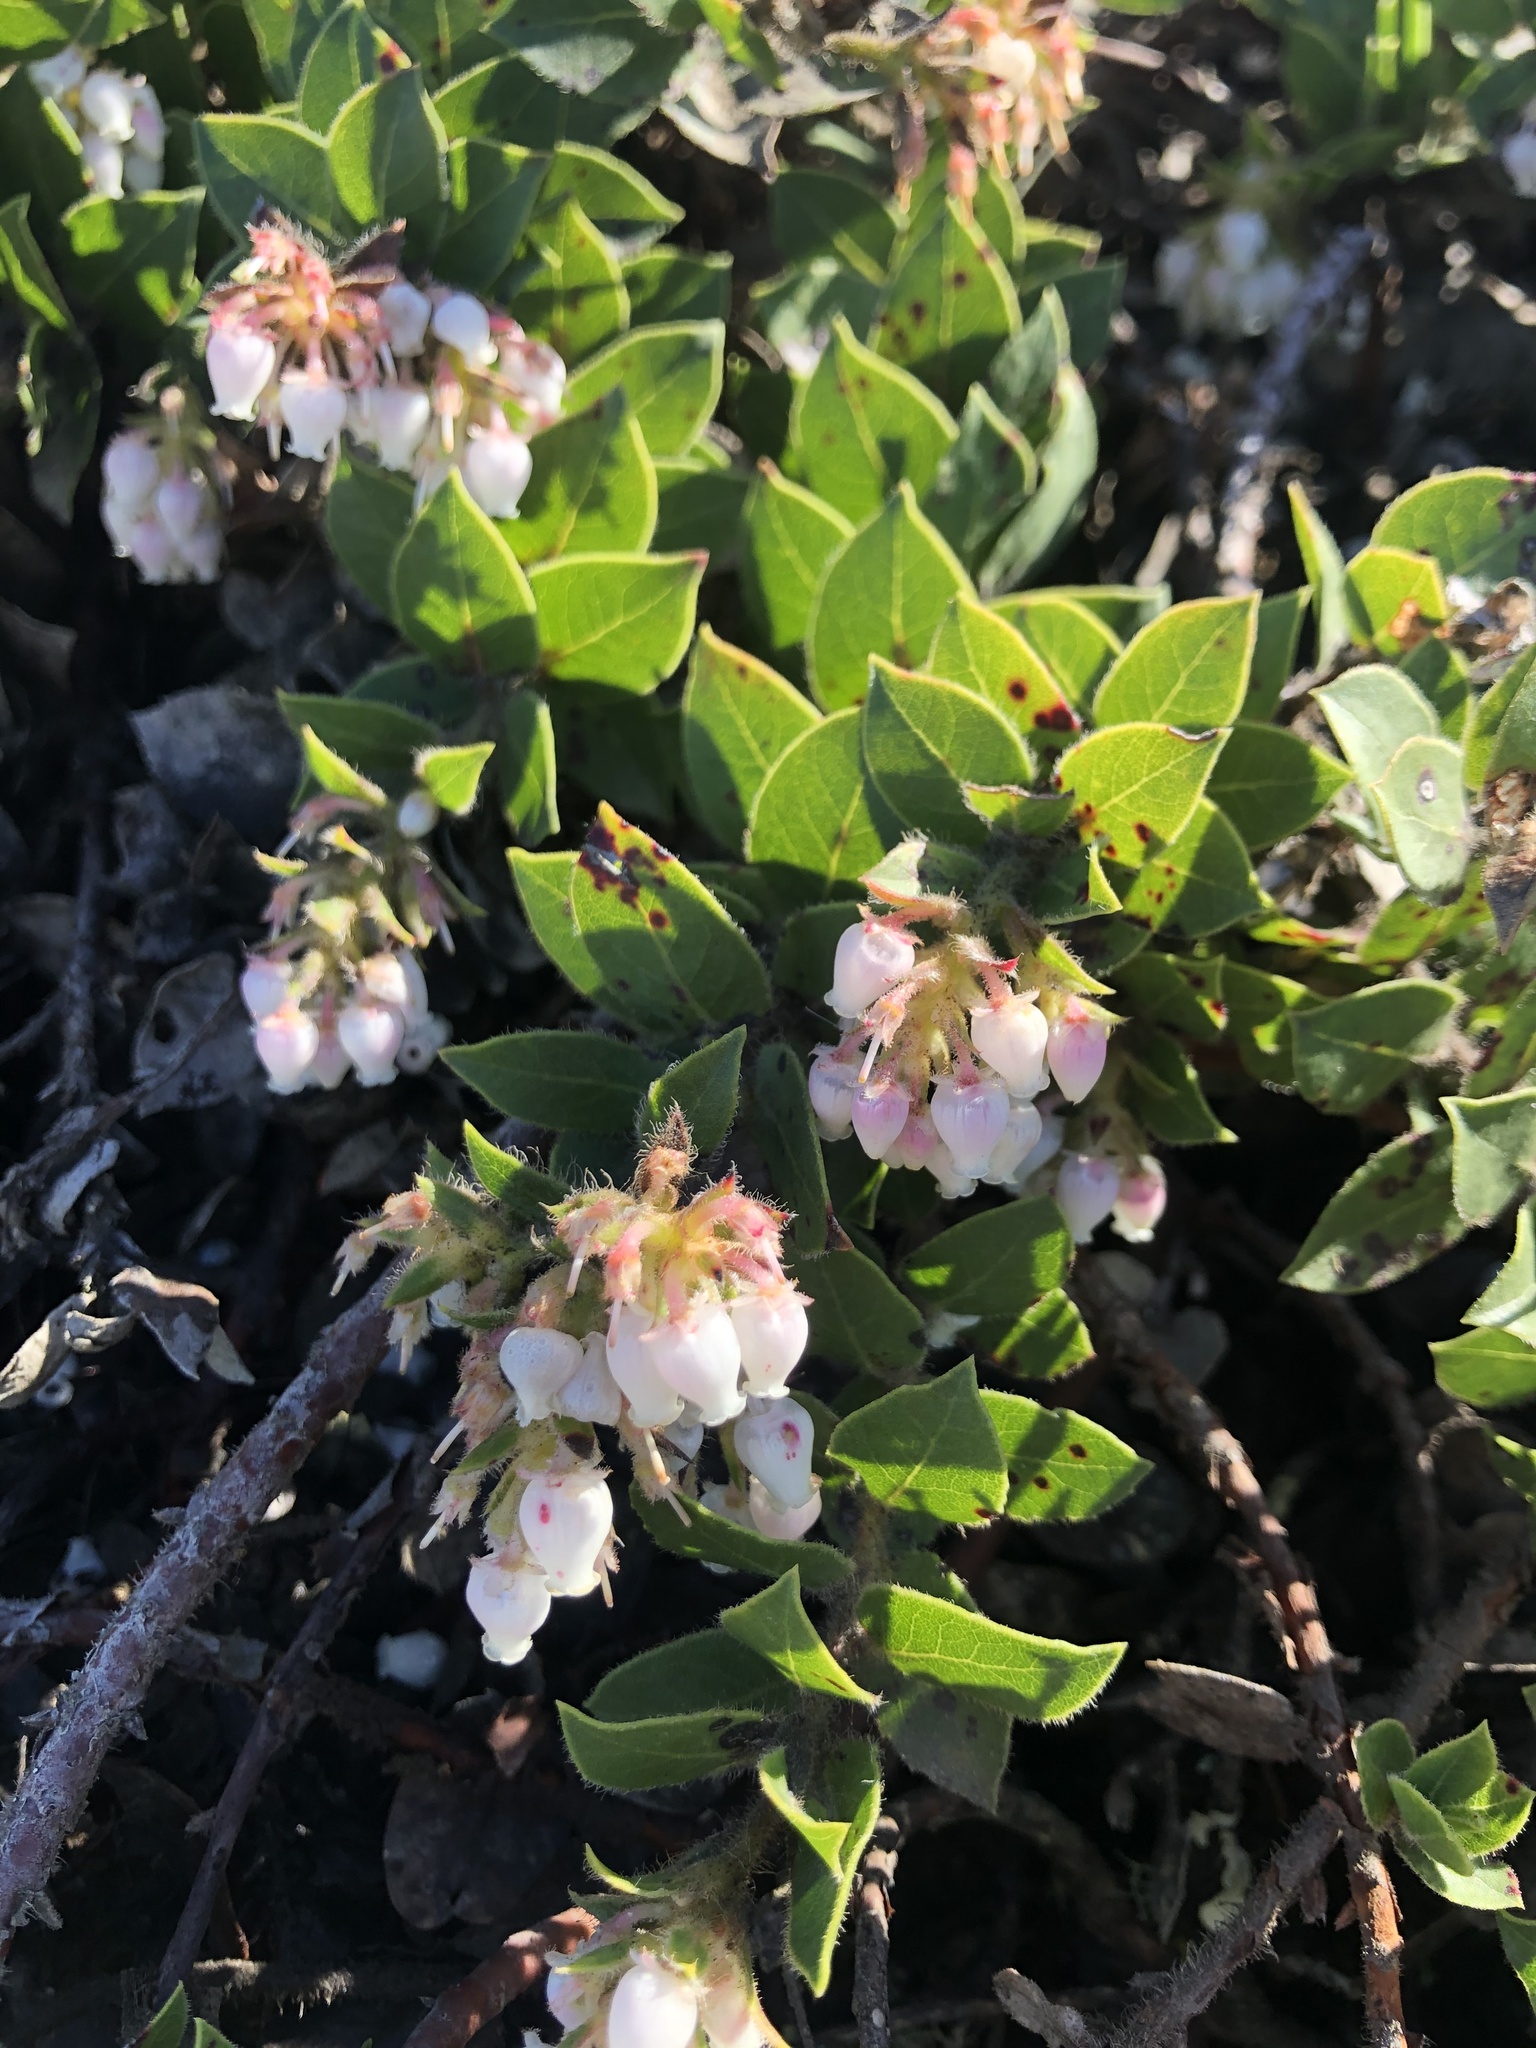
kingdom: Plantae
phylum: Tracheophyta
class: Magnoliopsida
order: Ericales
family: Ericaceae
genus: Arctostaphylos
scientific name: Arctostaphylos imbricata
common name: San bruno mountain manzanita
